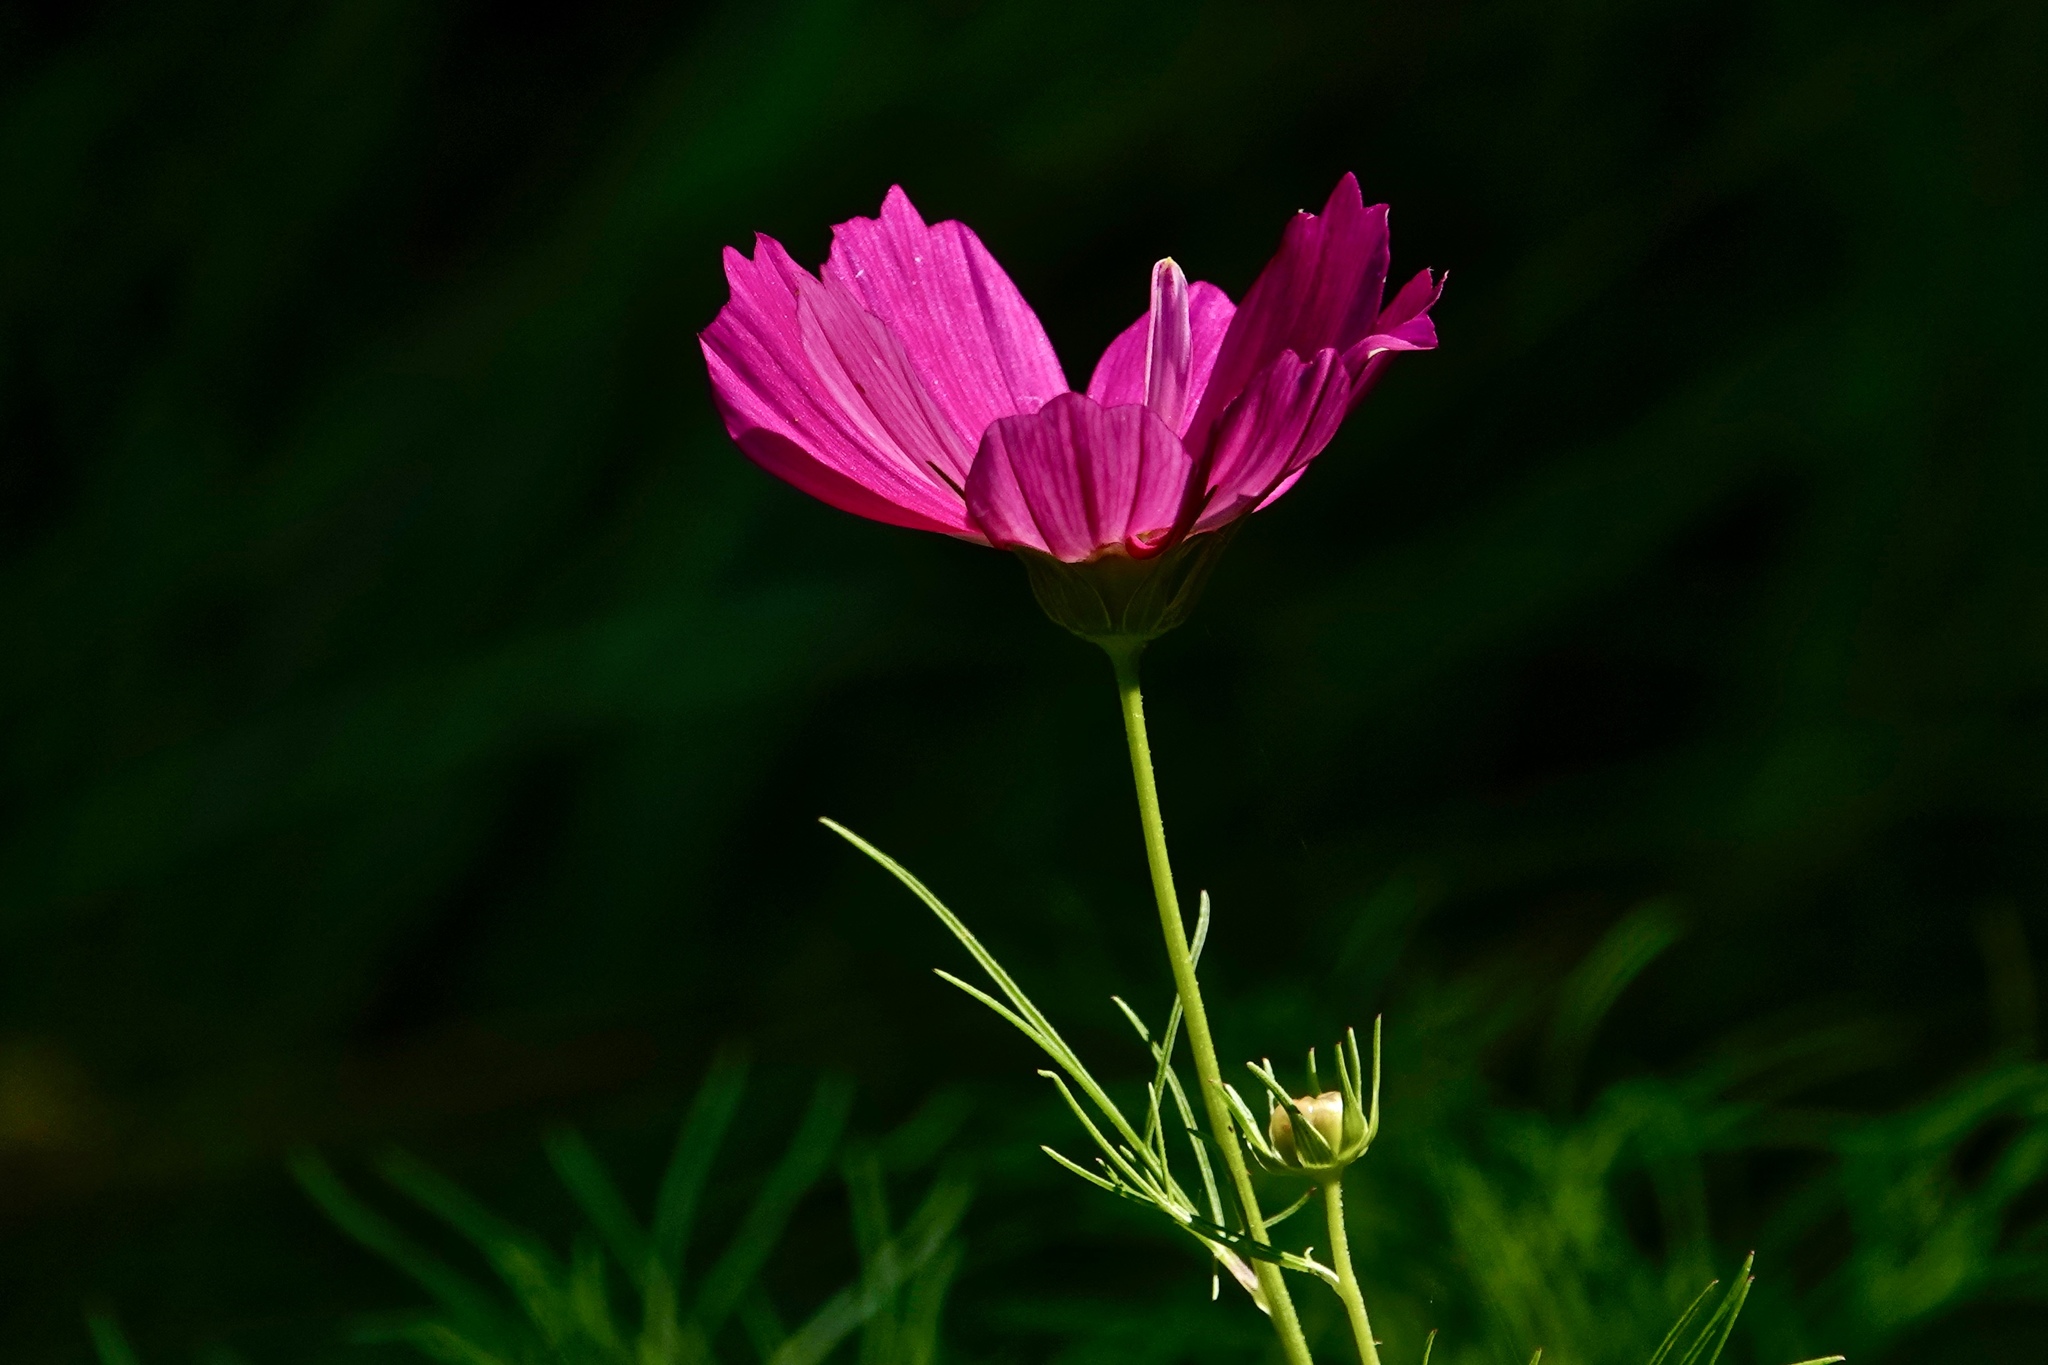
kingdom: Plantae
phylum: Tracheophyta
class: Magnoliopsida
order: Asterales
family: Asteraceae
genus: Cosmos
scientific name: Cosmos bipinnatus
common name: Garden cosmos
